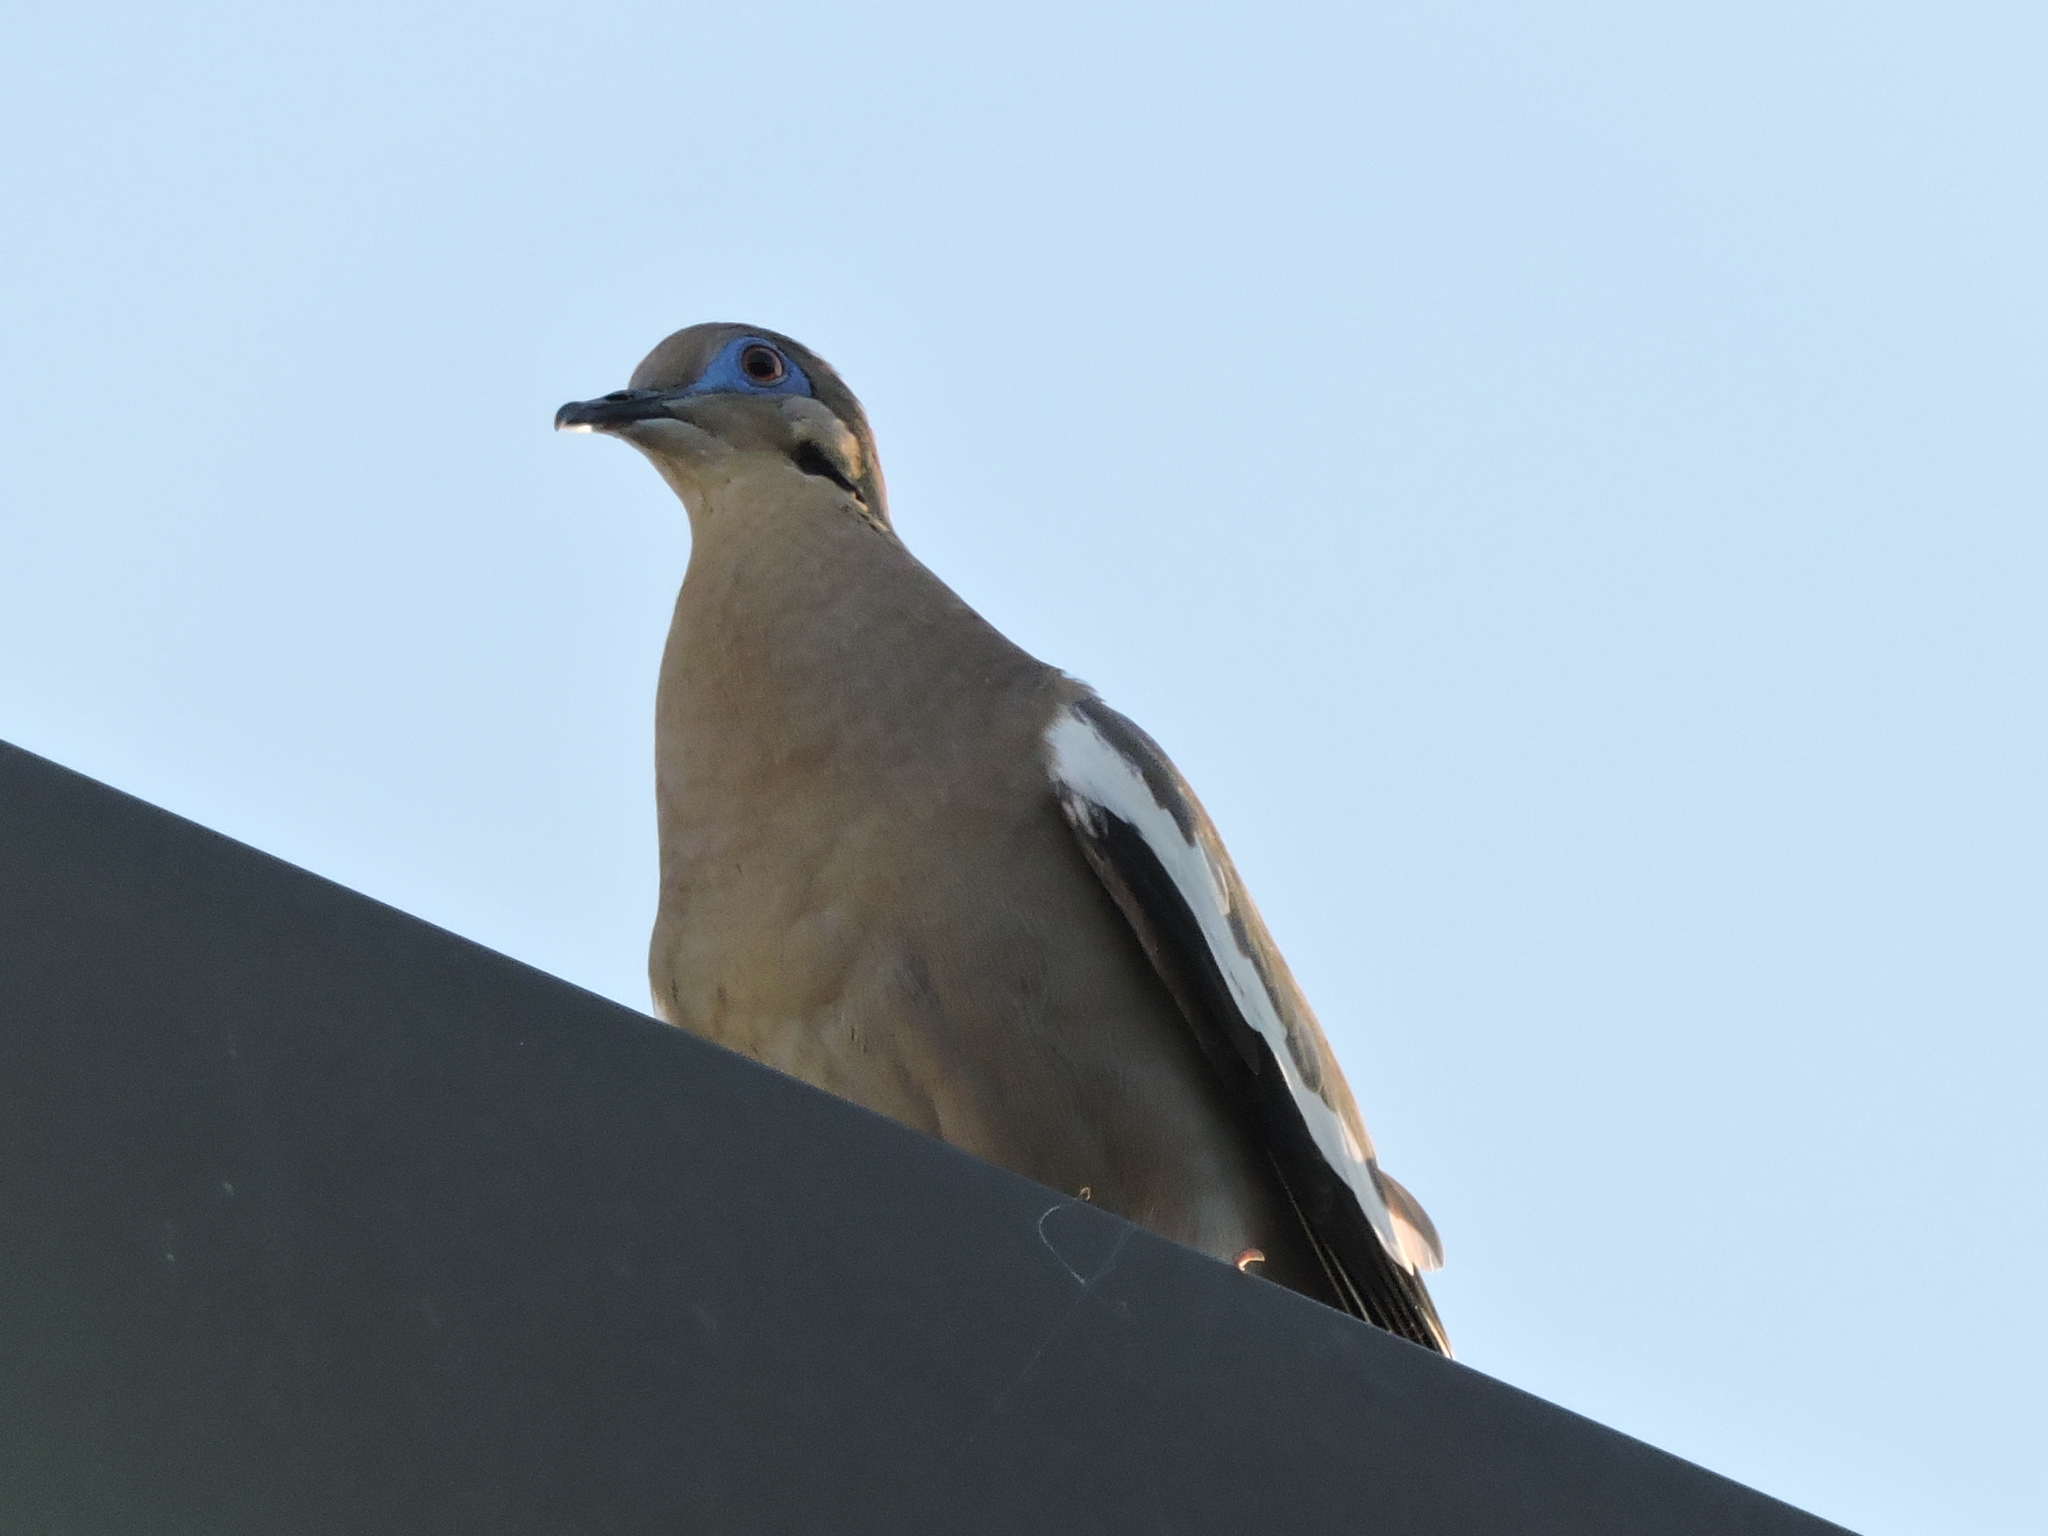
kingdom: Animalia
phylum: Chordata
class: Aves
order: Columbiformes
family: Columbidae
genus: Zenaida
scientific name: Zenaida asiatica
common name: White-winged dove
